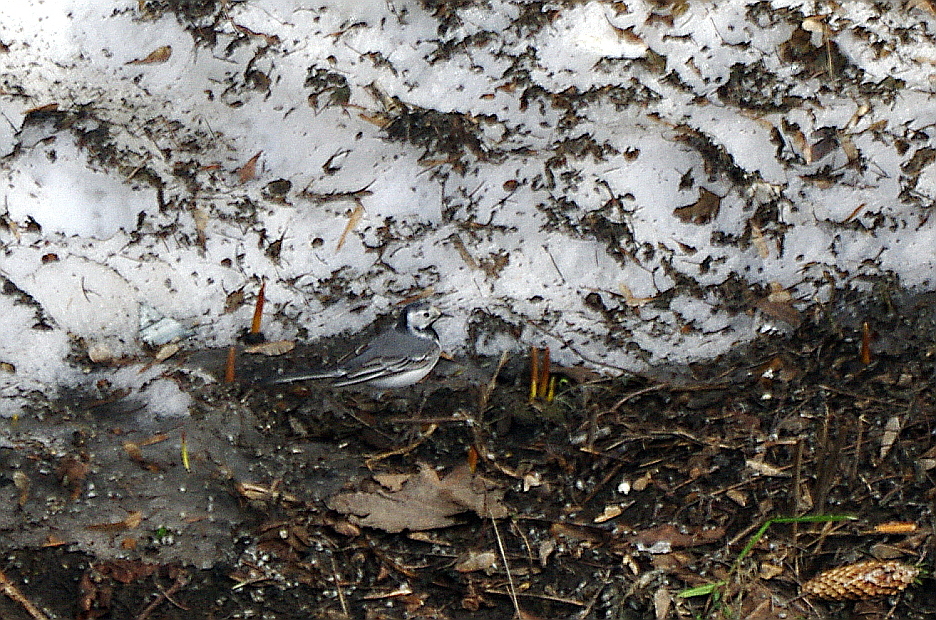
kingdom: Animalia
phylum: Chordata
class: Aves
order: Passeriformes
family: Motacillidae
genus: Motacilla
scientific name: Motacilla alba
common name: White wagtail
